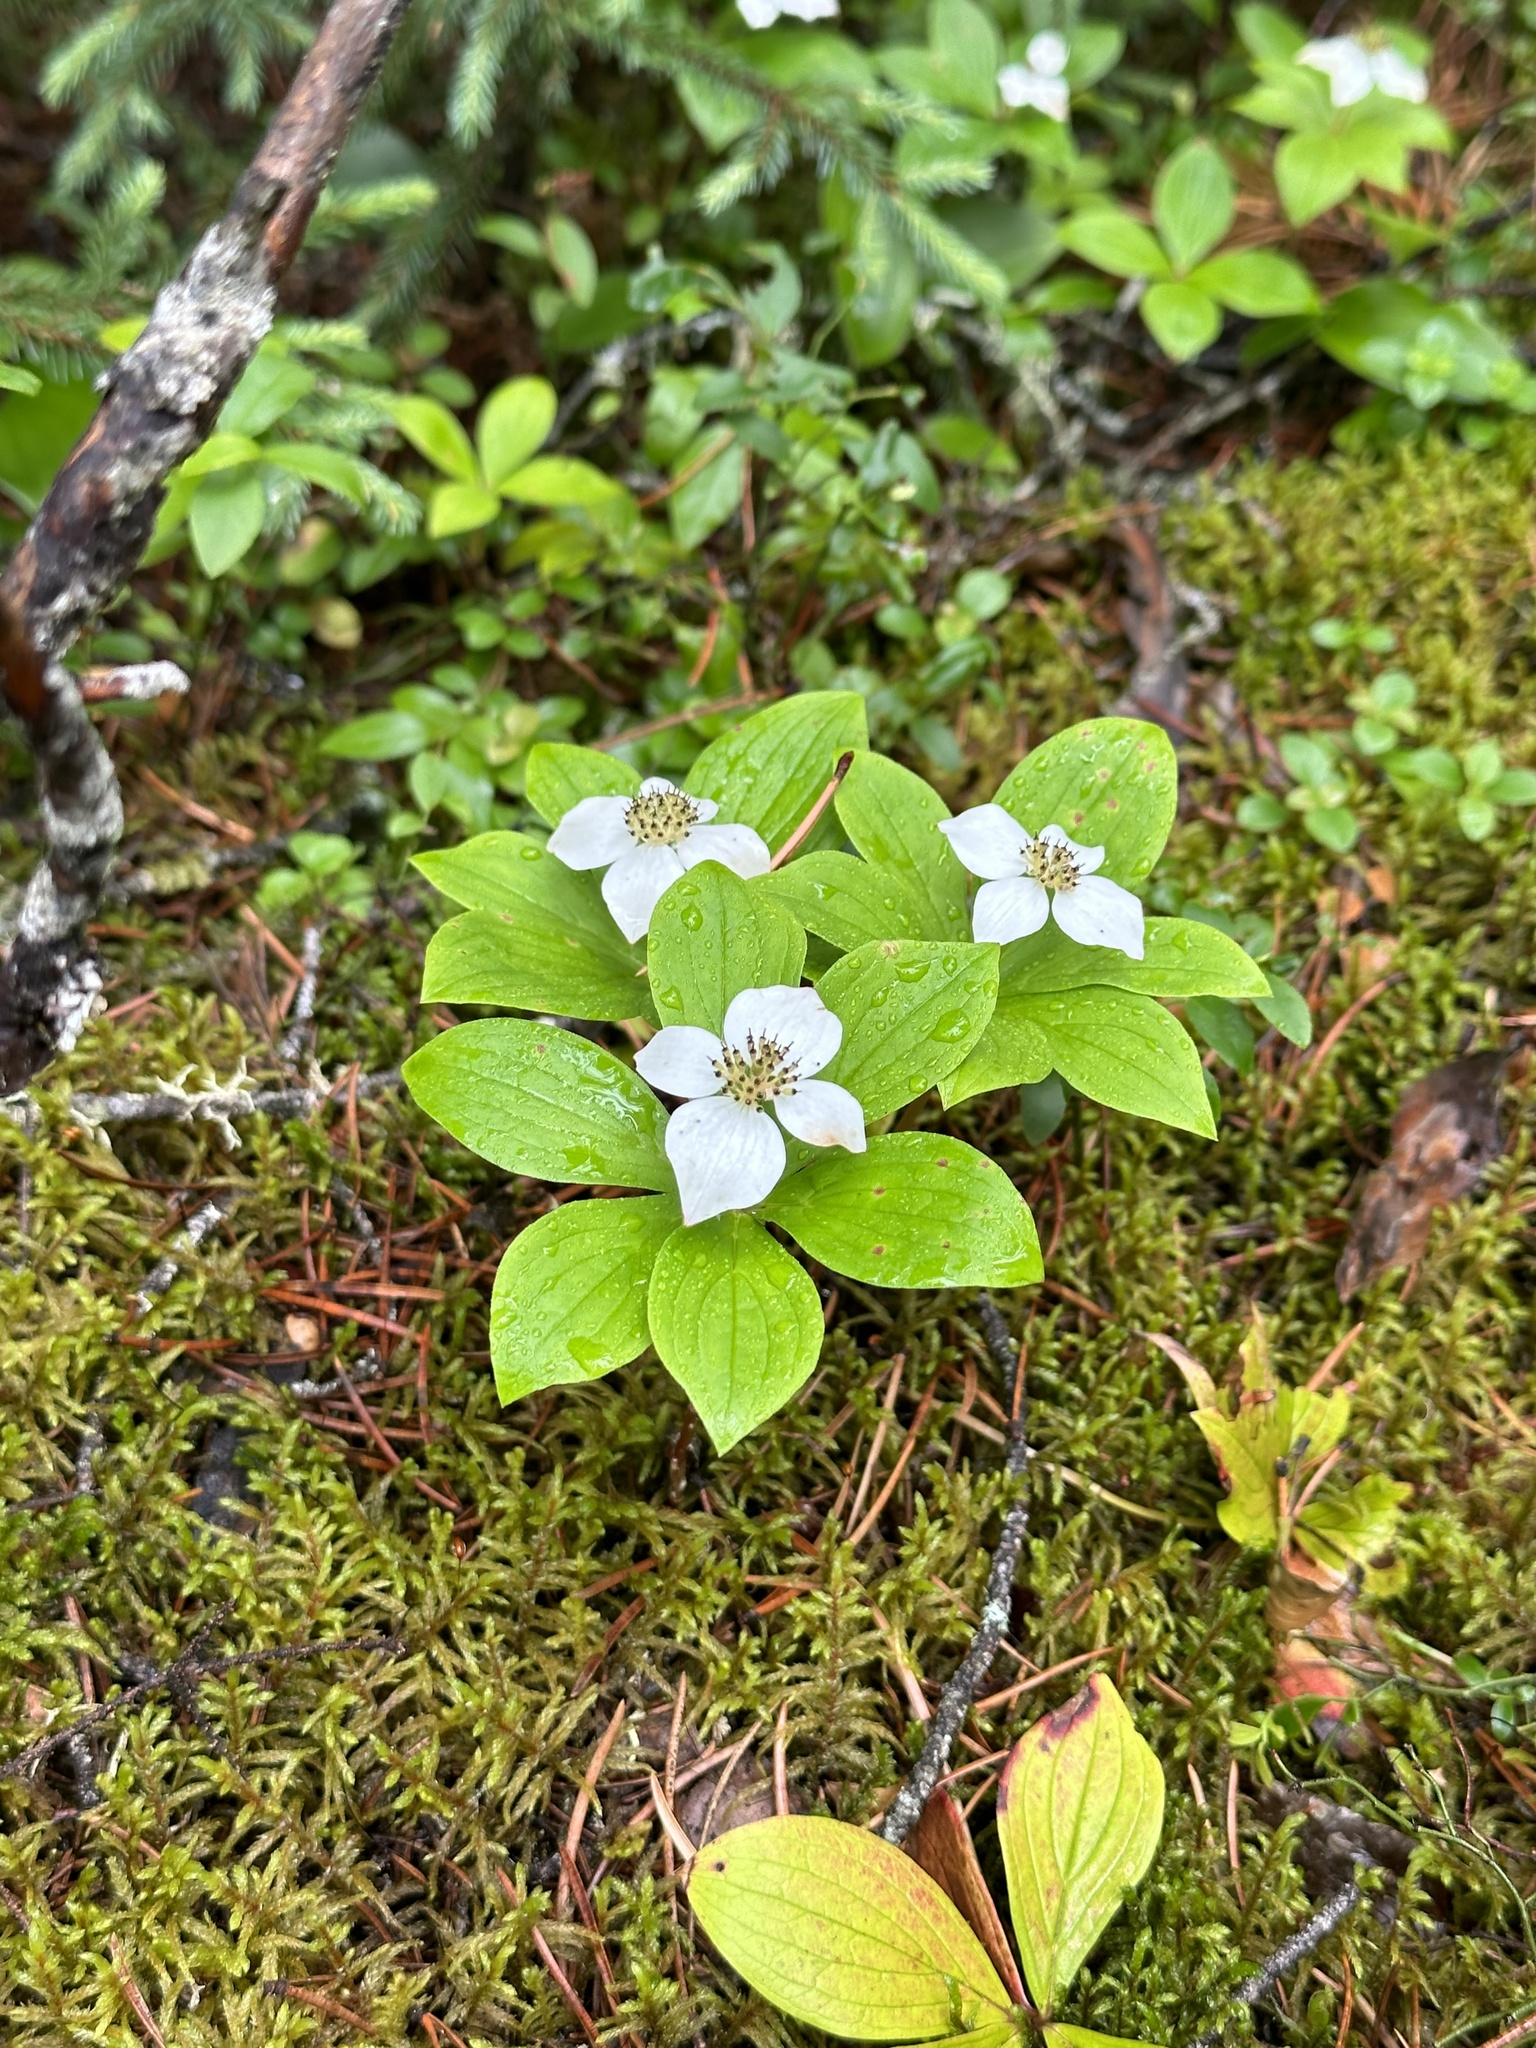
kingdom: Plantae
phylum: Tracheophyta
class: Magnoliopsida
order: Cornales
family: Cornaceae
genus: Cornus
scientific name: Cornus canadensis
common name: Creeping dogwood
